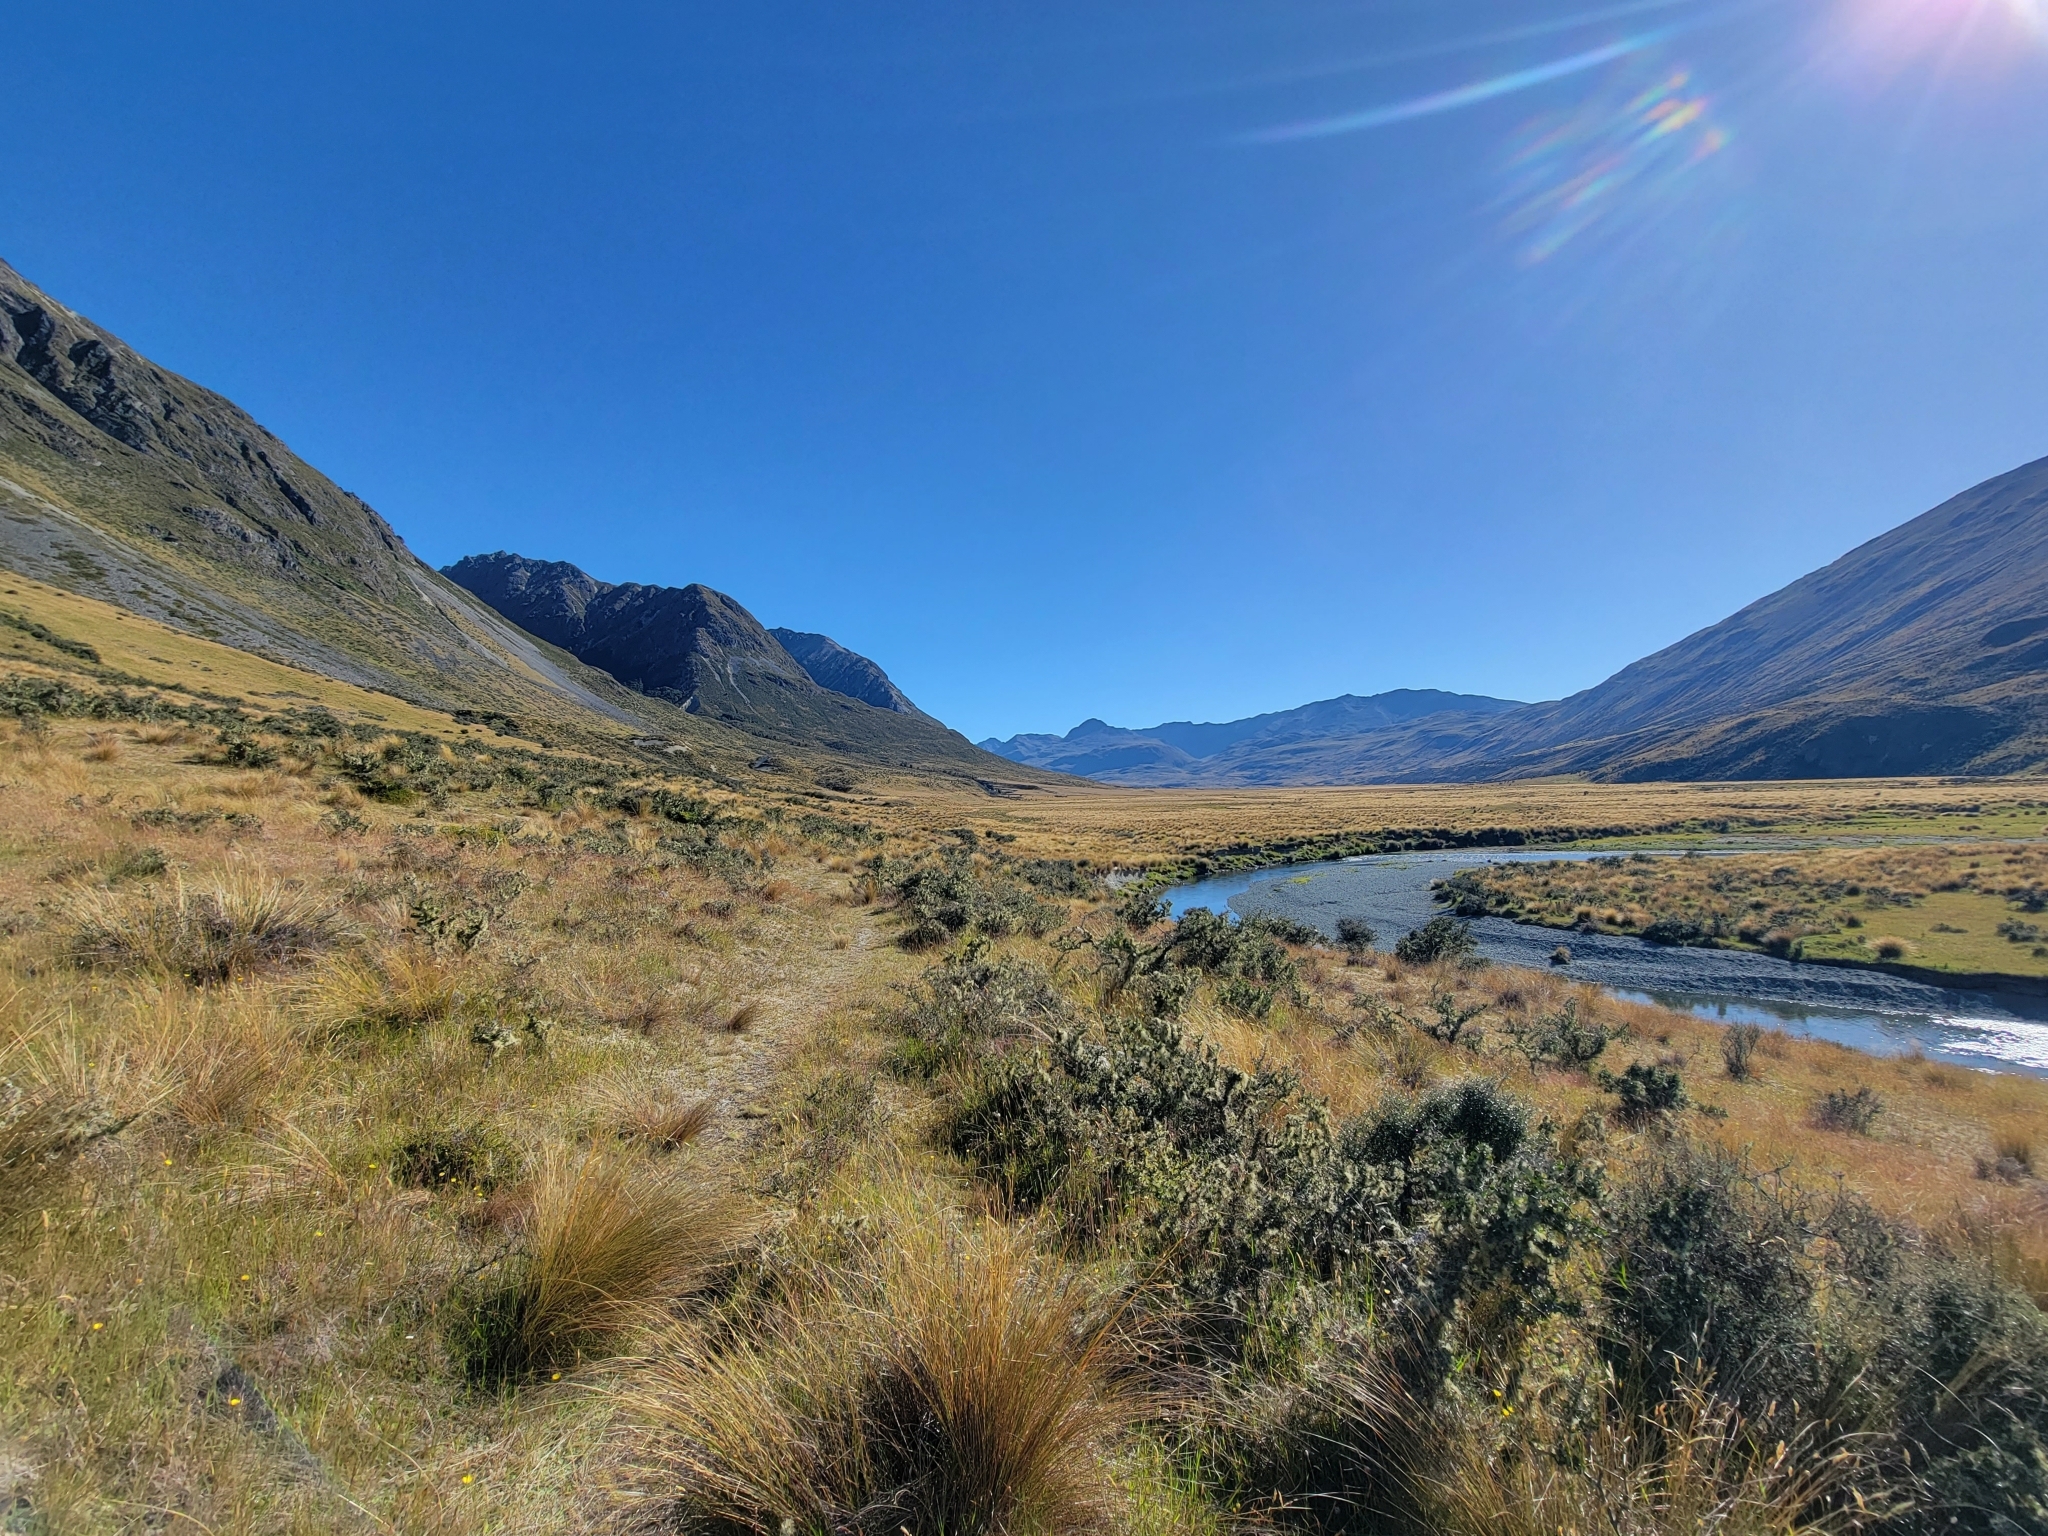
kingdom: Plantae
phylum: Tracheophyta
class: Liliopsida
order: Poales
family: Poaceae
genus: Chionochloa
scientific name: Chionochloa rubra
